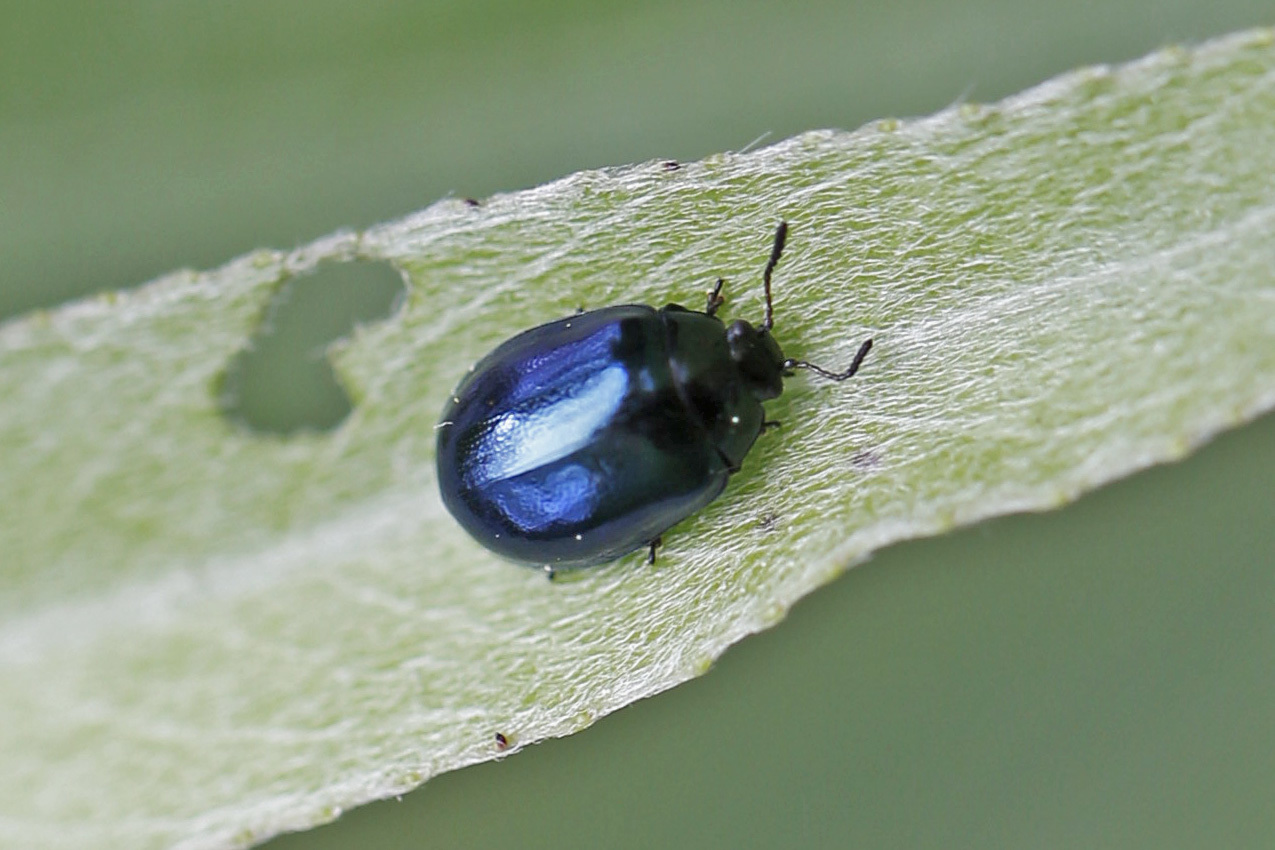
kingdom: Animalia
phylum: Arthropoda
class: Insecta
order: Coleoptera
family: Chrysomelidae
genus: Plagiodera
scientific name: Plagiodera versicolora
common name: Imported willow leaf beetle
